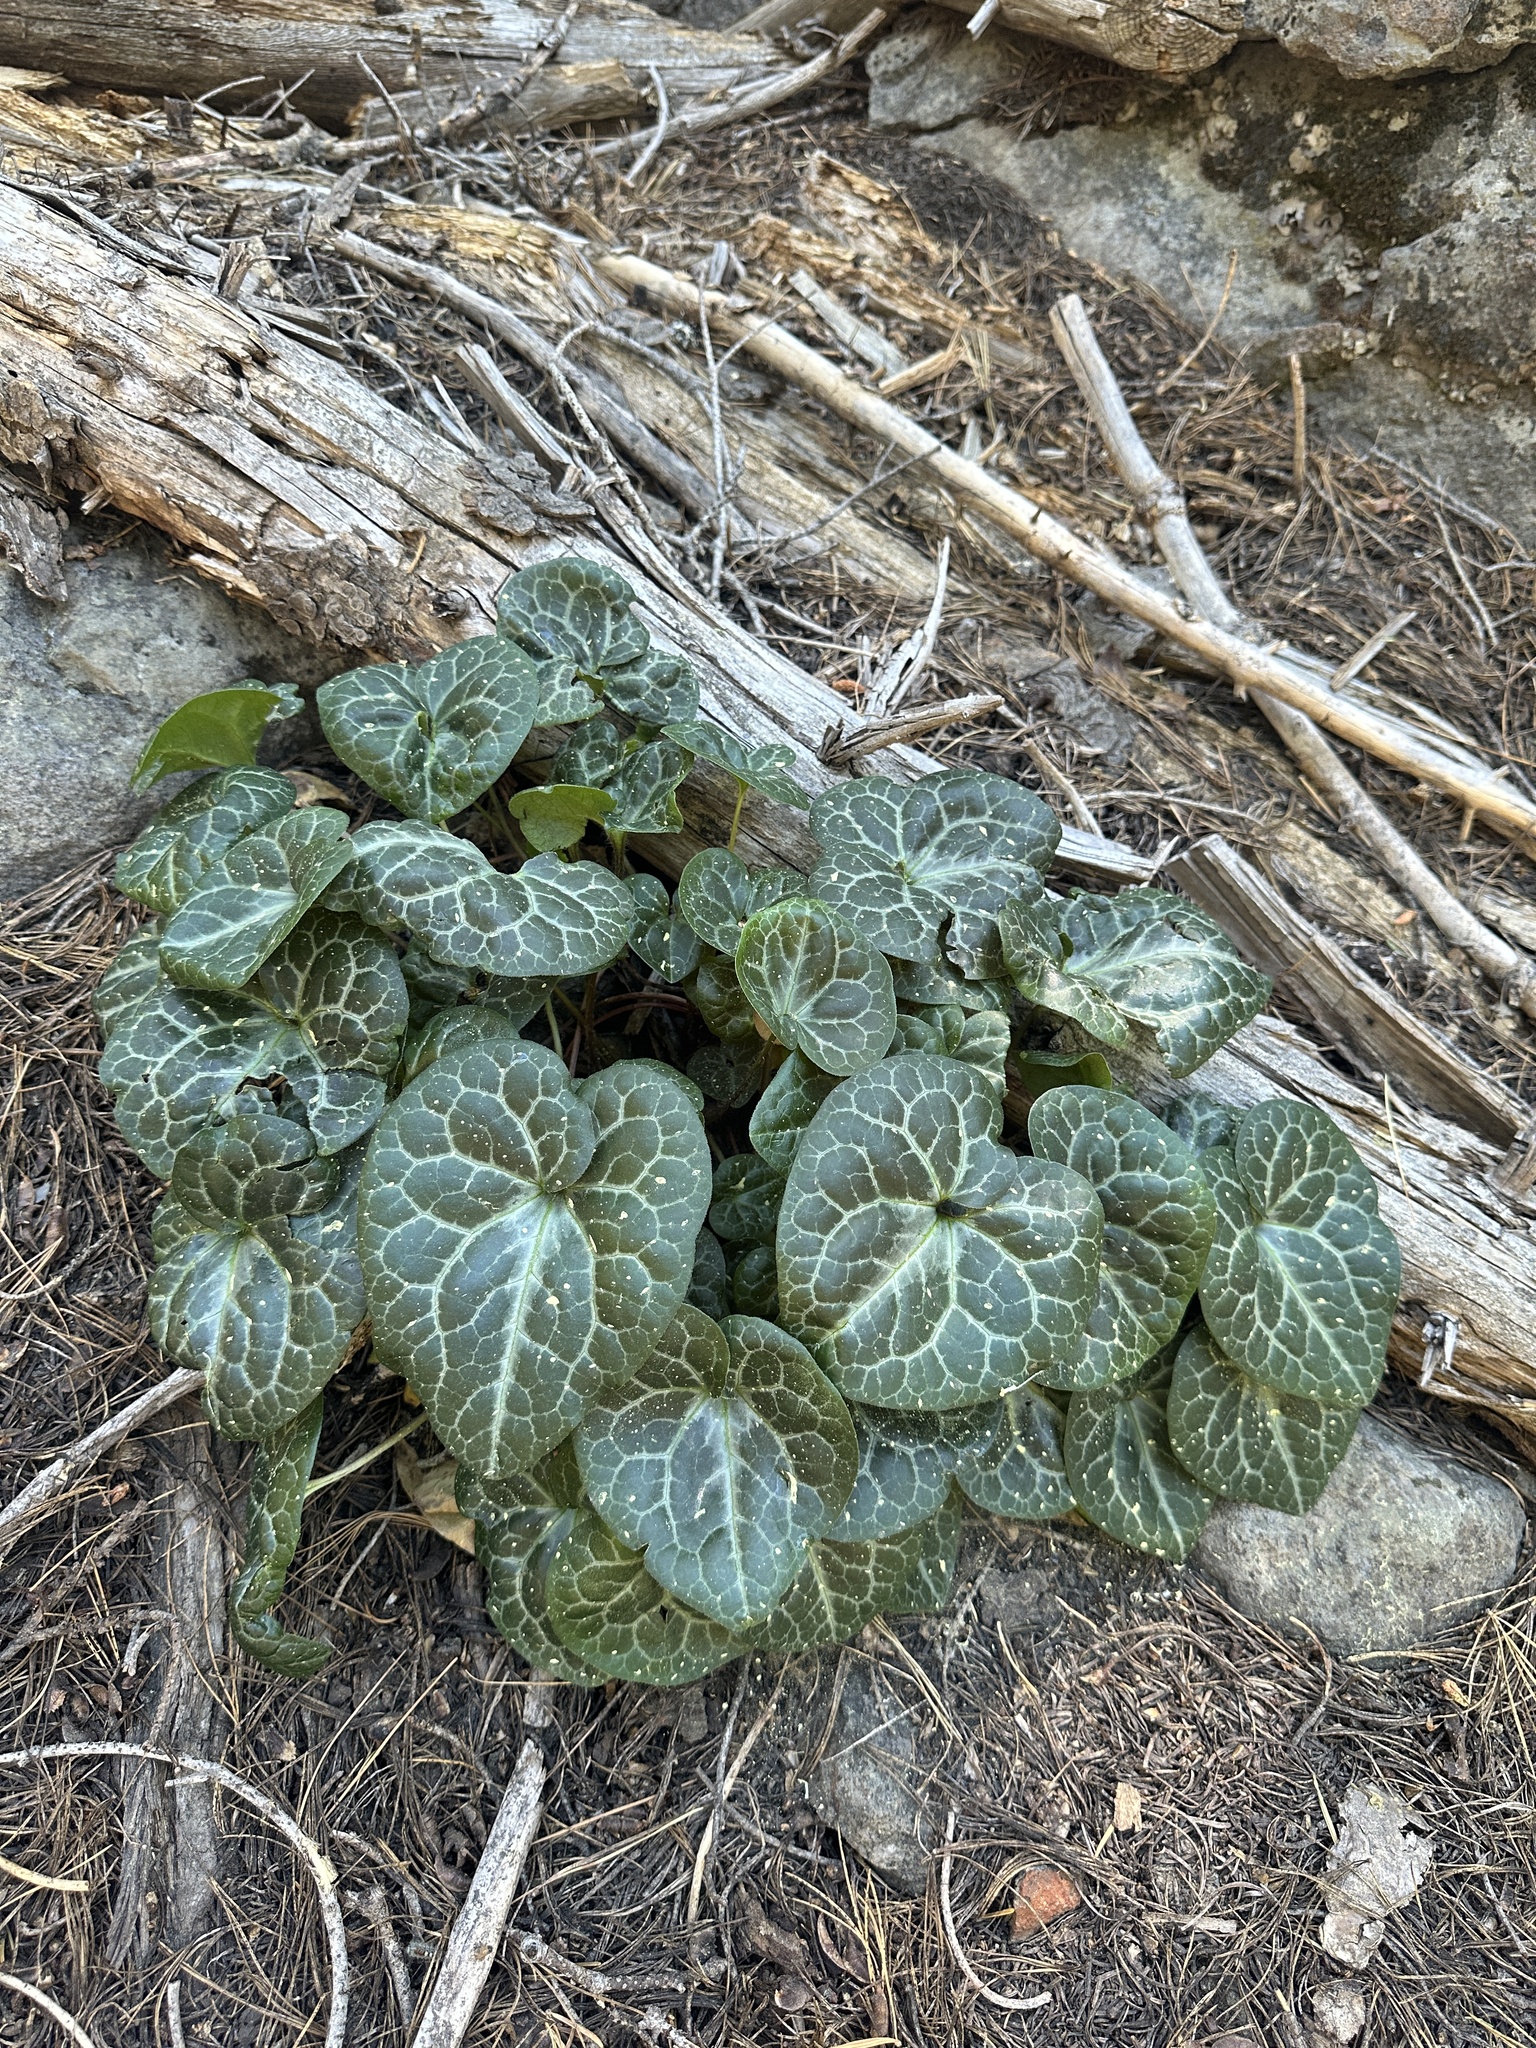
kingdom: Plantae
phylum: Tracheophyta
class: Magnoliopsida
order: Piperales
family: Aristolochiaceae
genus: Asarum
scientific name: Asarum hartwegii
